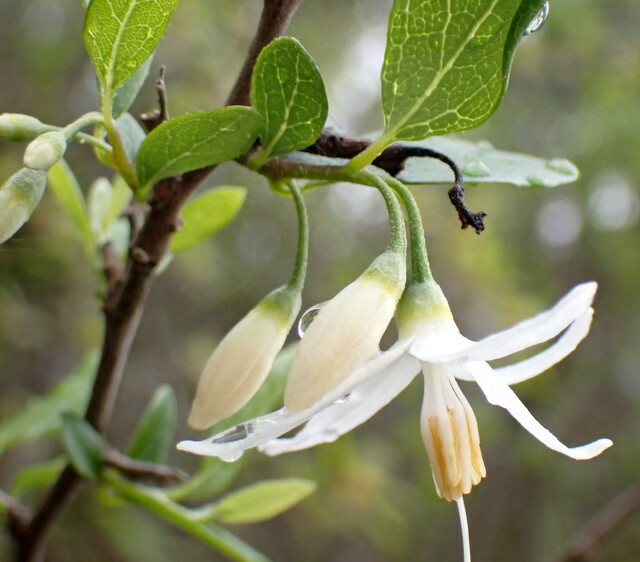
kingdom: Plantae
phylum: Tracheophyta
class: Magnoliopsida
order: Ericales
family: Styracaceae
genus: Styrax
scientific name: Styrax americanus
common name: American snowbell
